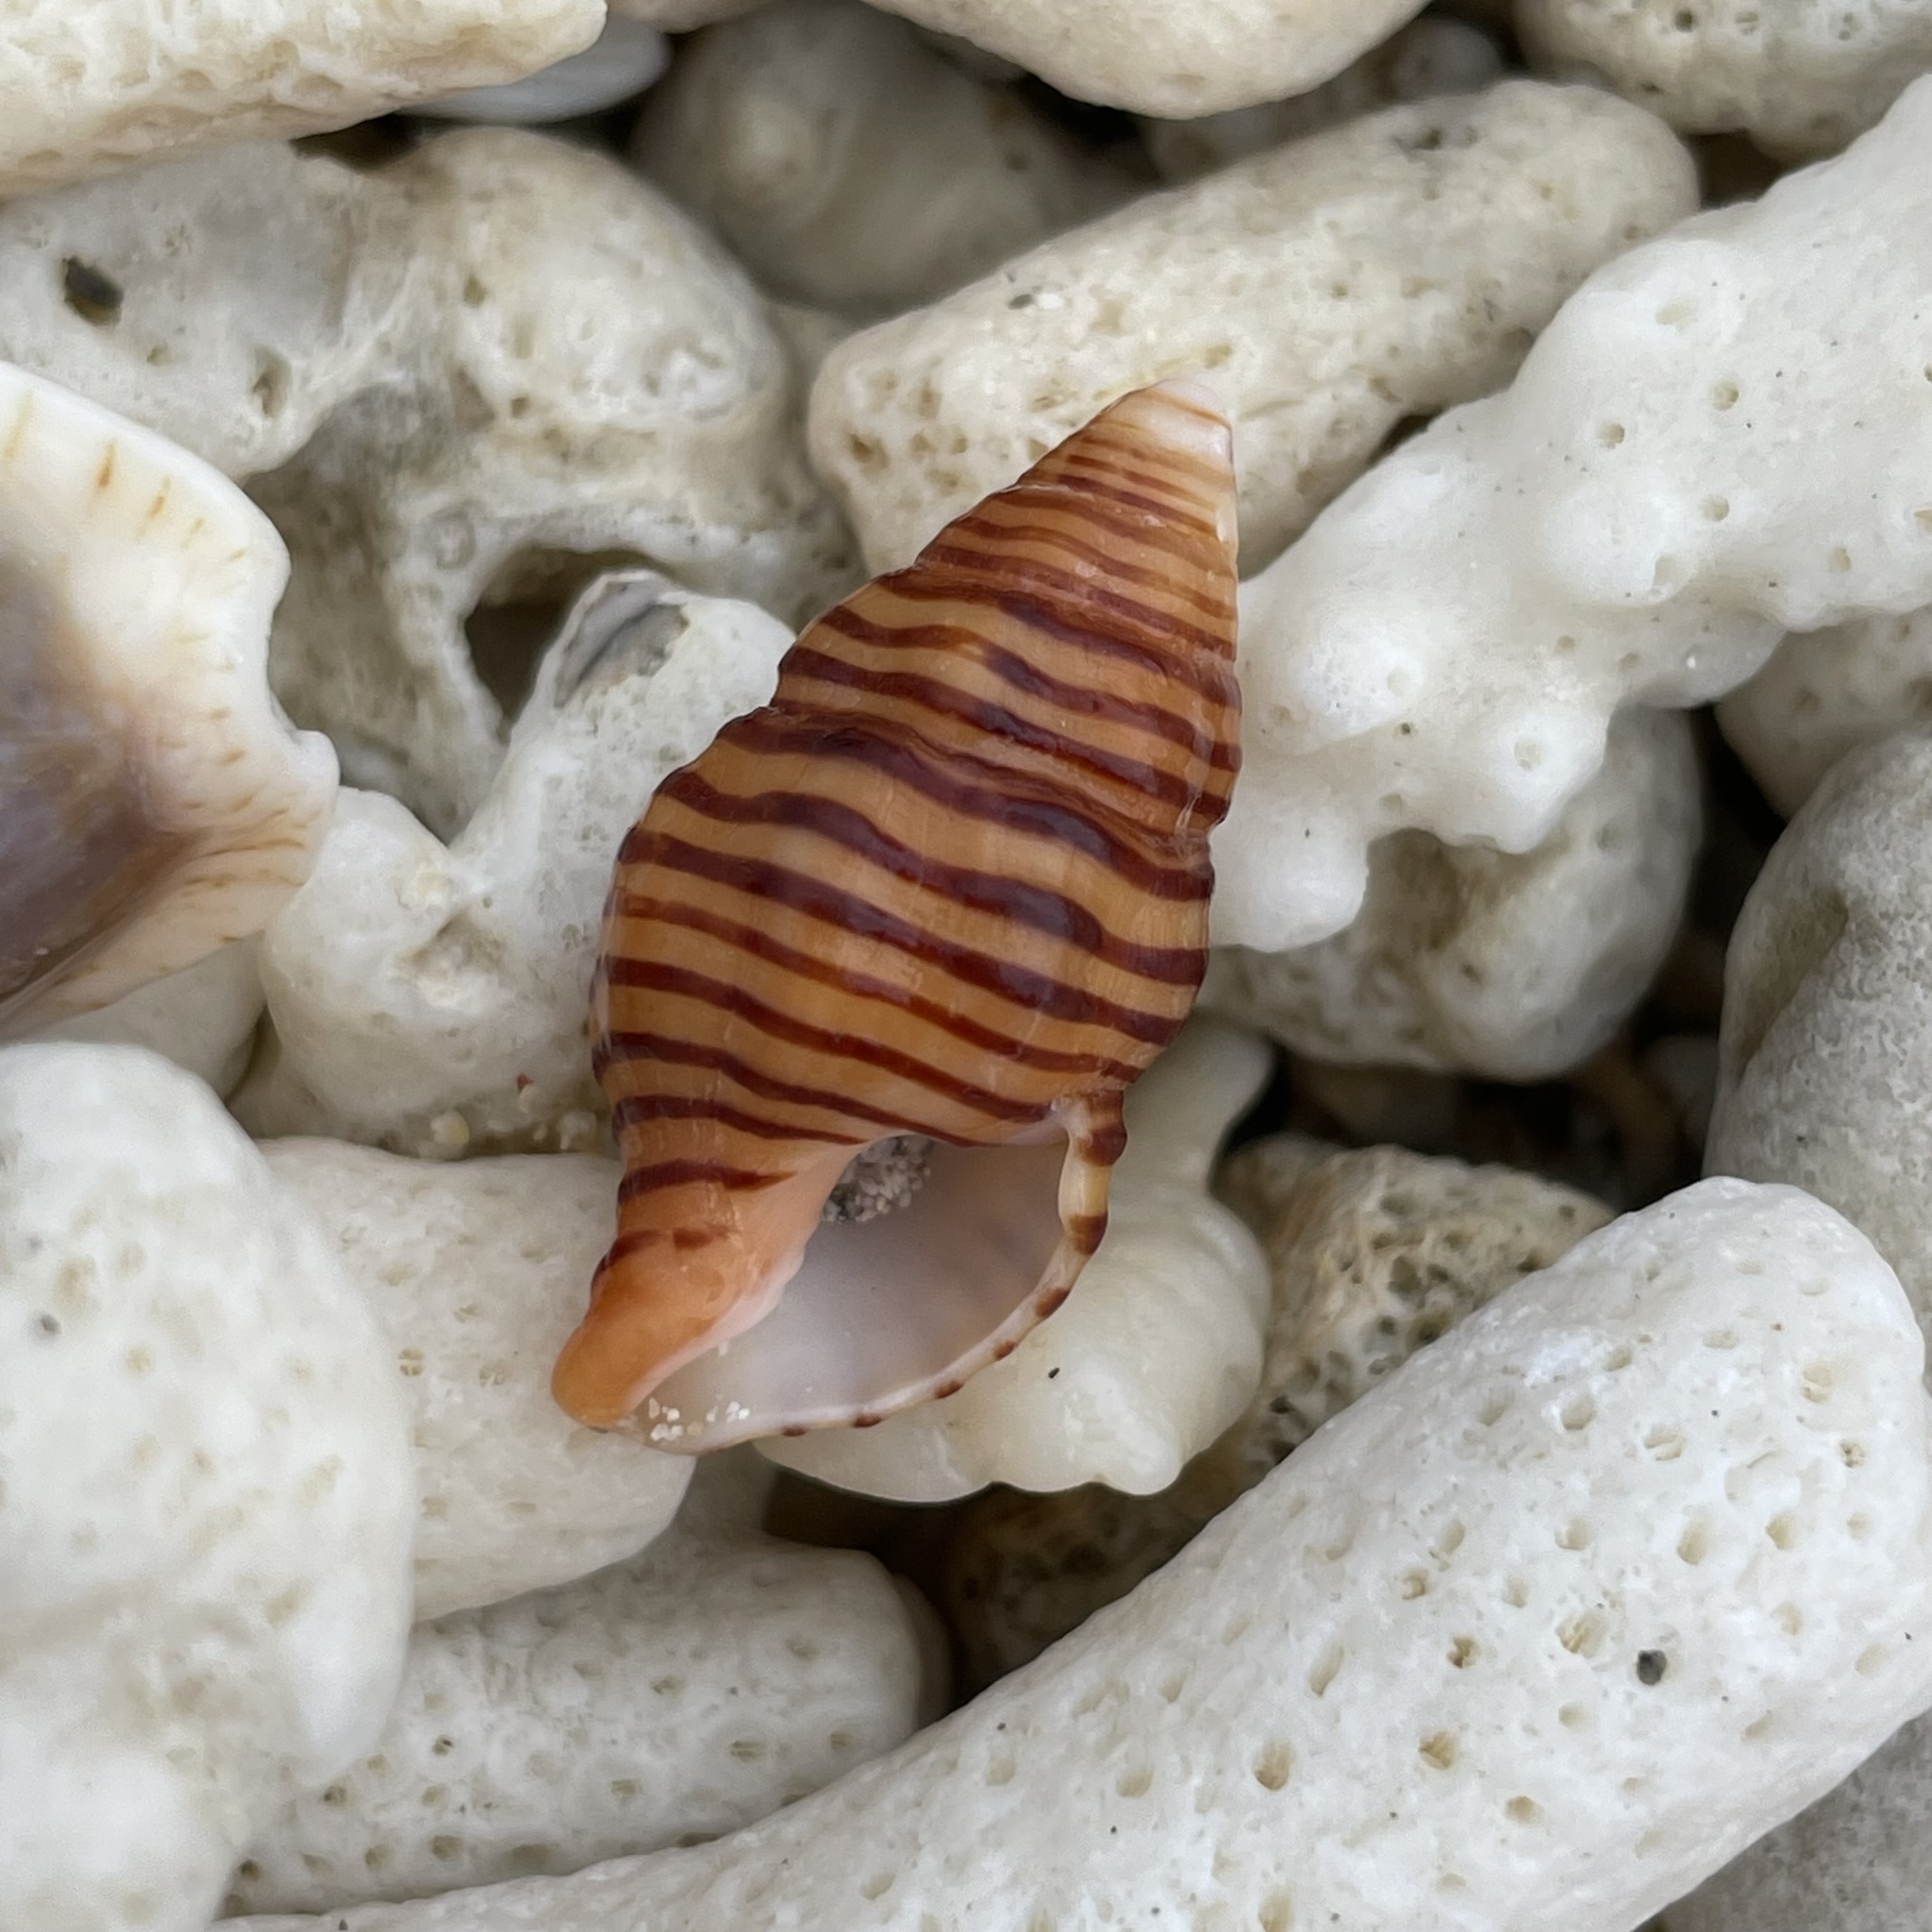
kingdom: Animalia
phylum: Mollusca
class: Gastropoda
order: Neogastropoda
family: Fasciolariidae
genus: Turrilatirus
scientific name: Turrilatirus turritus
